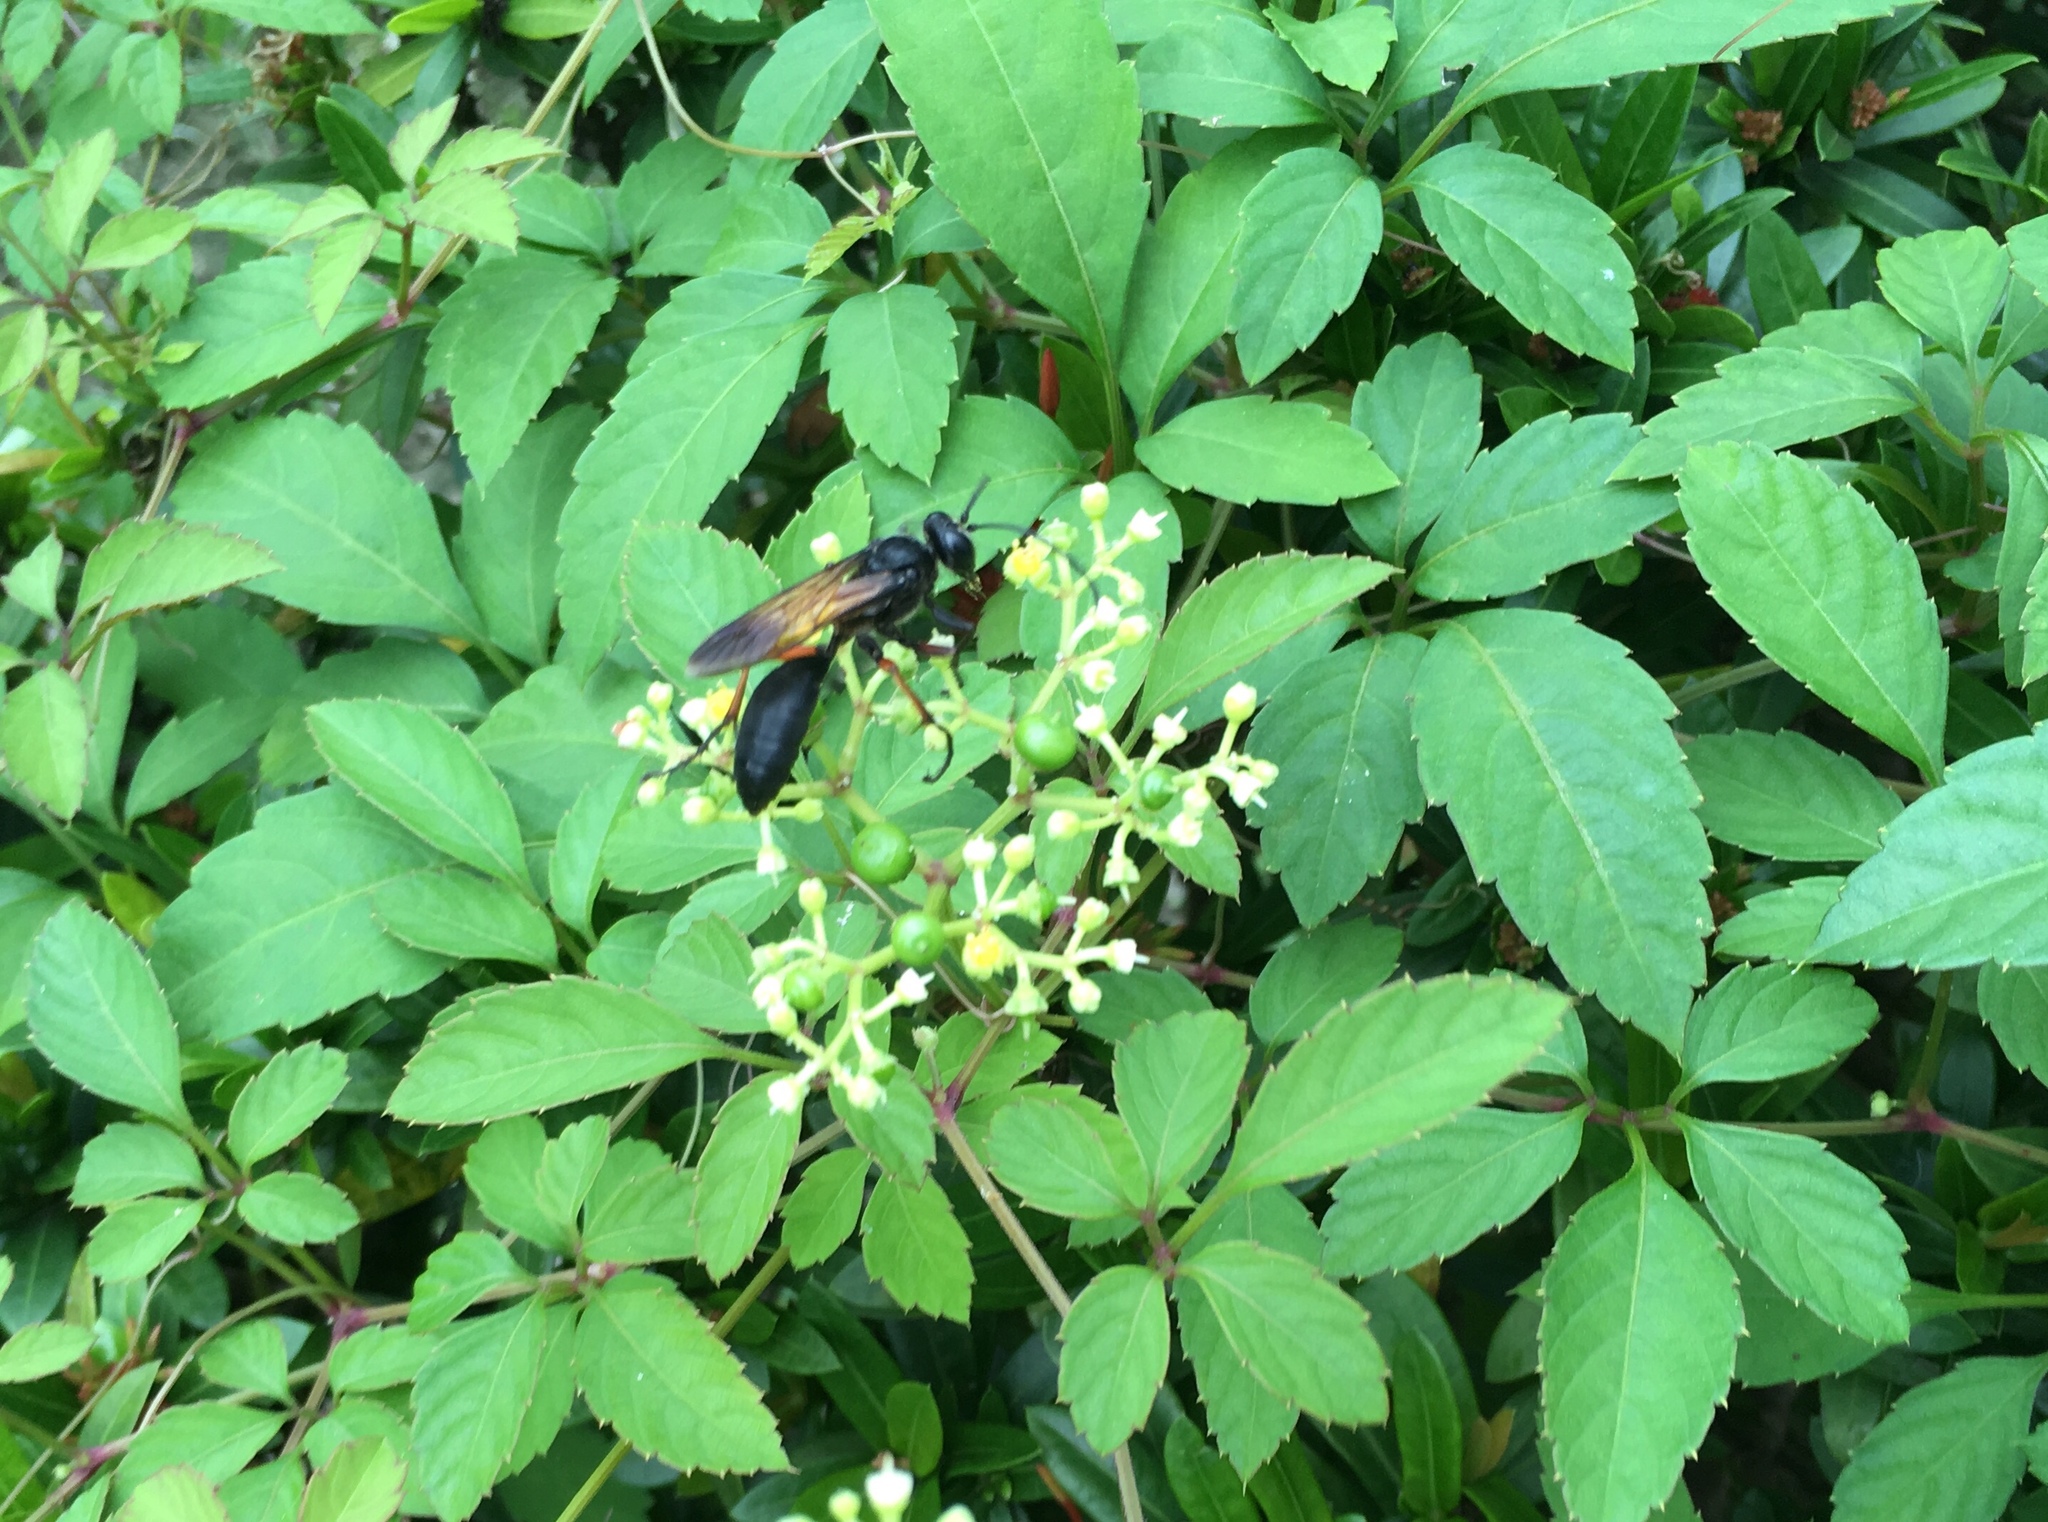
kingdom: Animalia
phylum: Arthropoda
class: Insecta
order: Hymenoptera
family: Sphecidae
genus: Sphex
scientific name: Sphex subtruncatus
